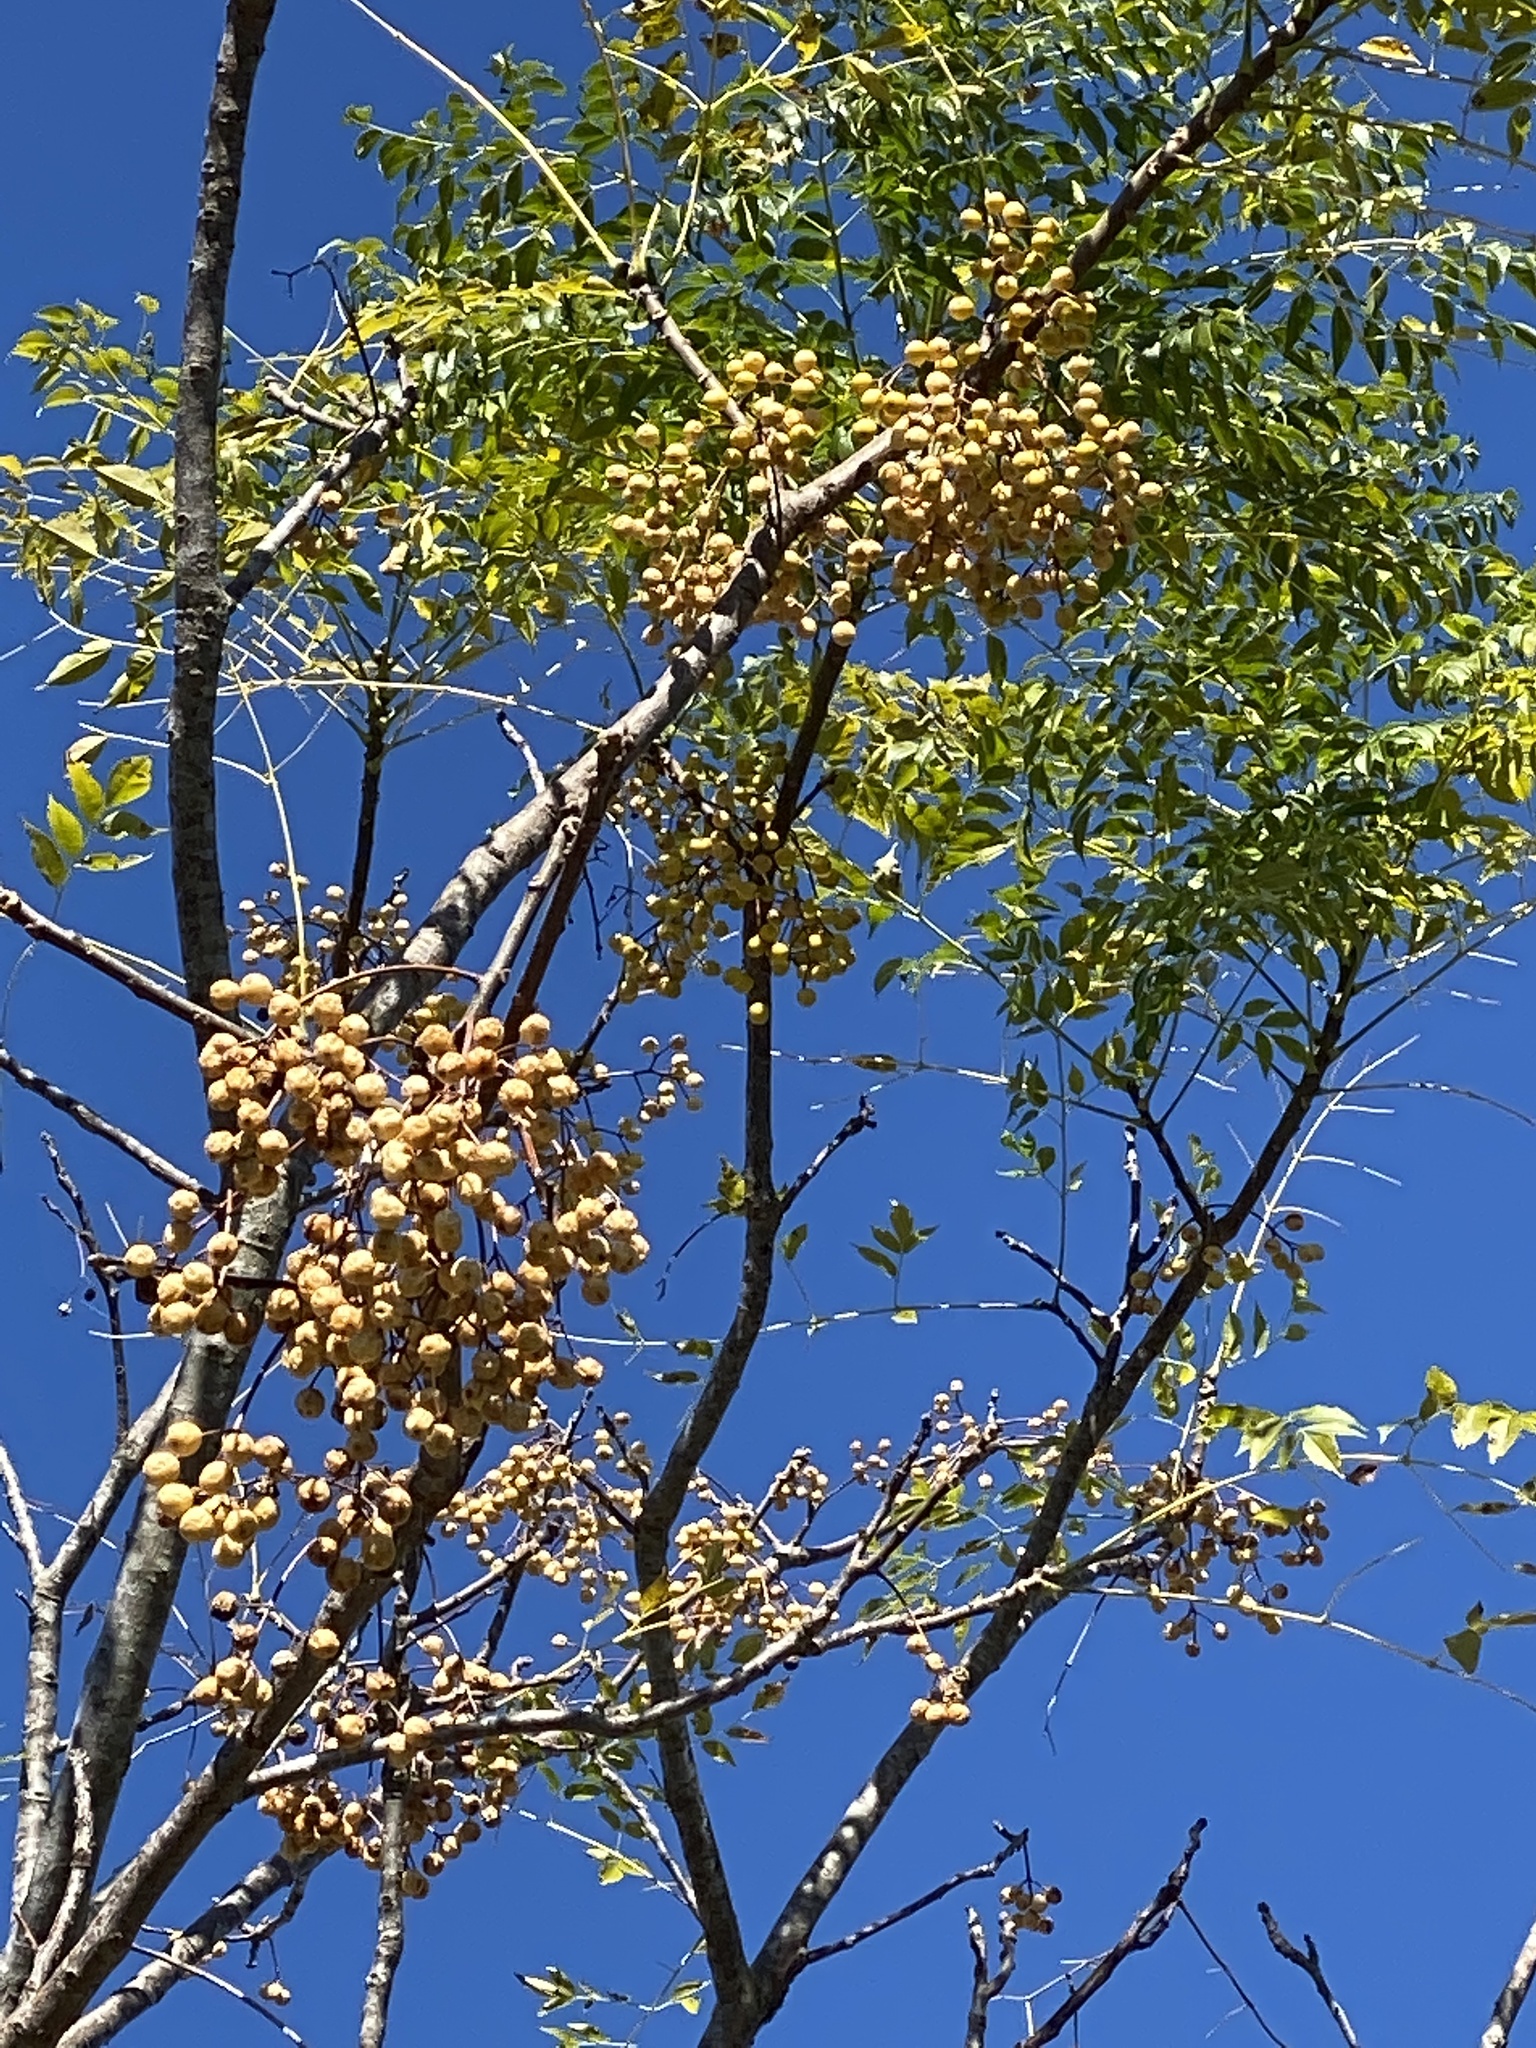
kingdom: Plantae
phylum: Tracheophyta
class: Magnoliopsida
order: Sapindales
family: Meliaceae
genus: Melia
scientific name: Melia azedarach
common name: Chinaberrytree
